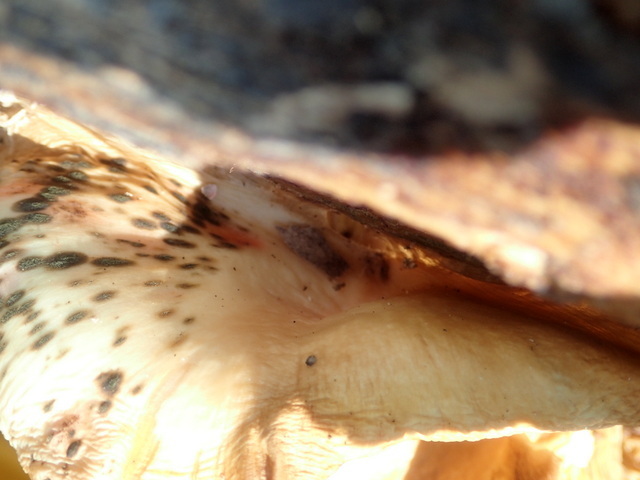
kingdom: Fungi
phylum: Basidiomycota
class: Agaricomycetes
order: Agaricales
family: Pleurotaceae
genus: Pleurotus
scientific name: Pleurotus ostreatus
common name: Oyster mushroom
